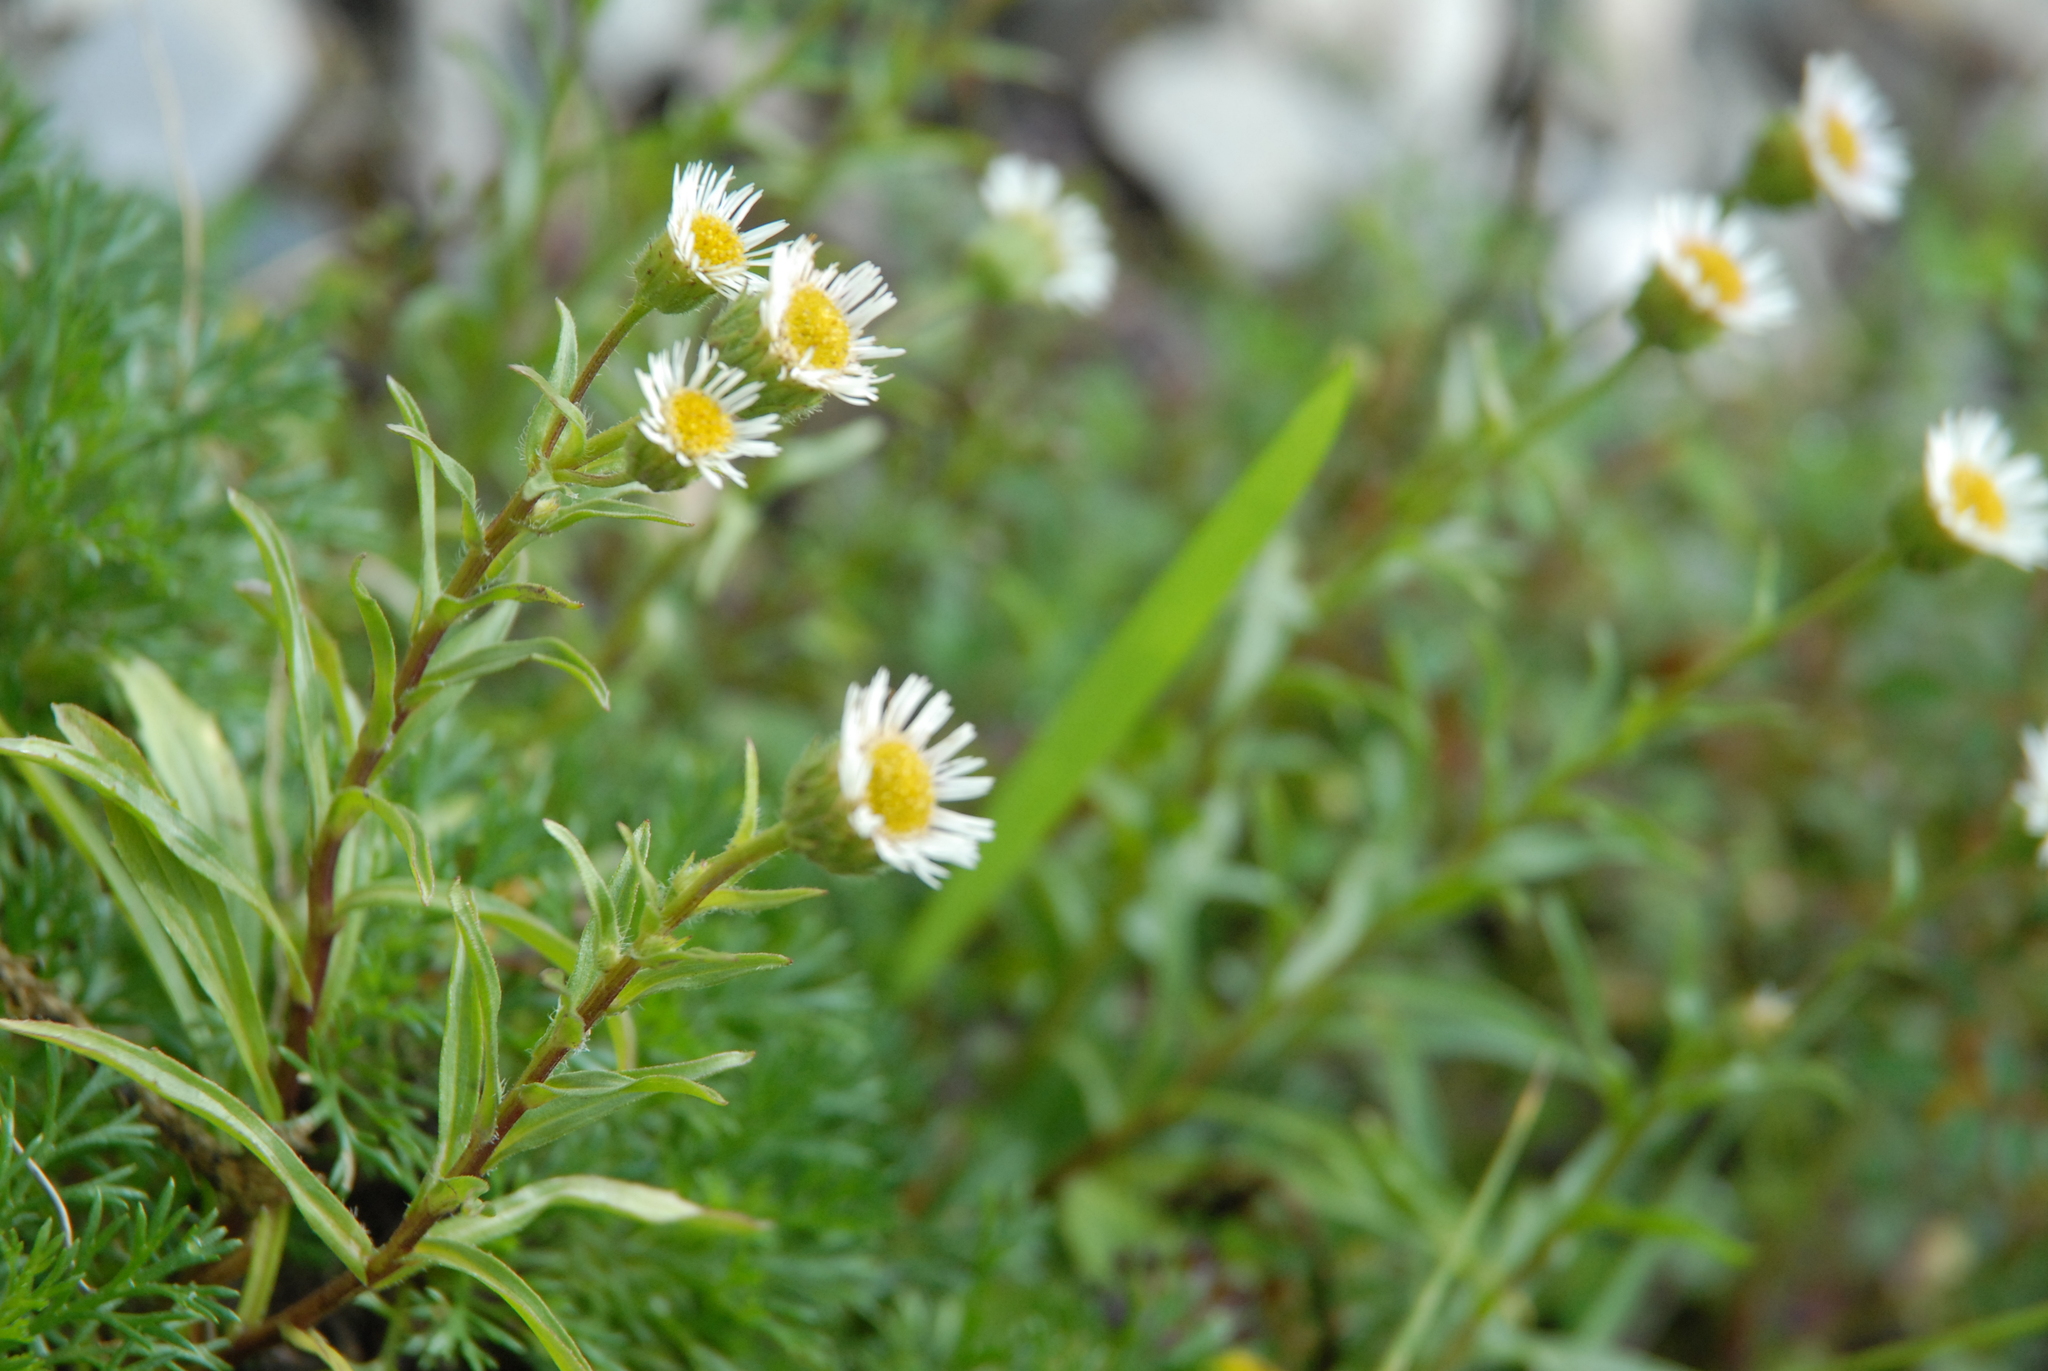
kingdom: Plantae
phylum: Tracheophyta
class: Magnoliopsida
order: Asterales
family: Asteraceae
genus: Erigeron
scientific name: Erigeron morrisonensis
